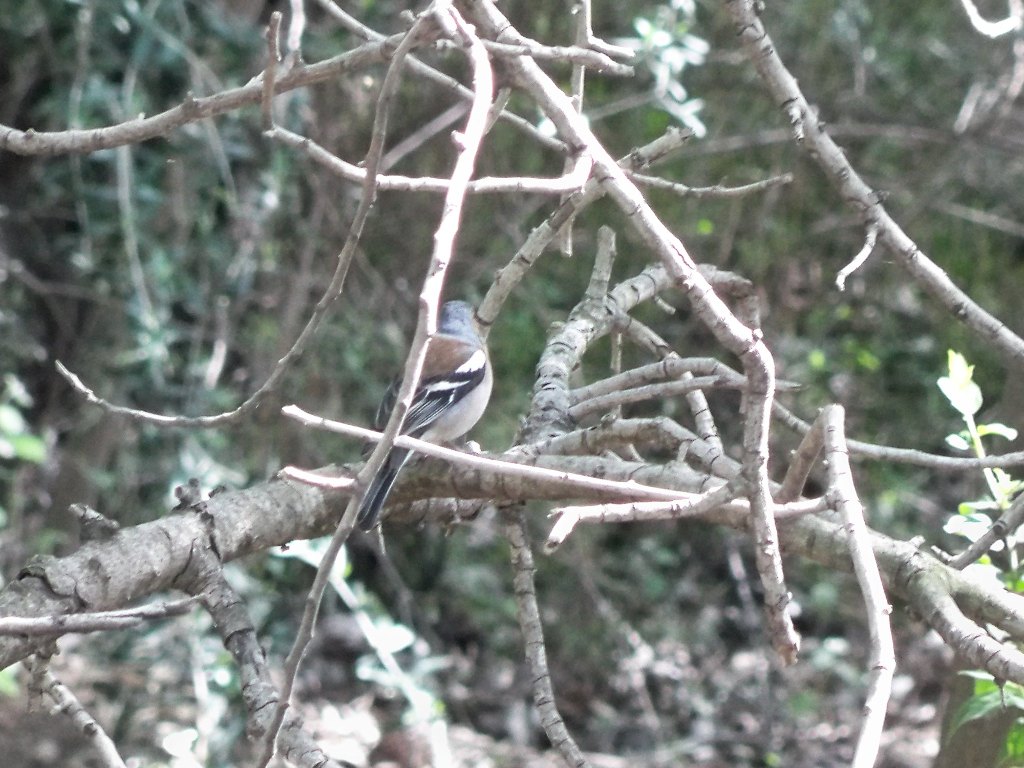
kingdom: Animalia
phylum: Chordata
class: Aves
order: Passeriformes
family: Fringillidae
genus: Fringilla
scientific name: Fringilla coelebs
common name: Common chaffinch
